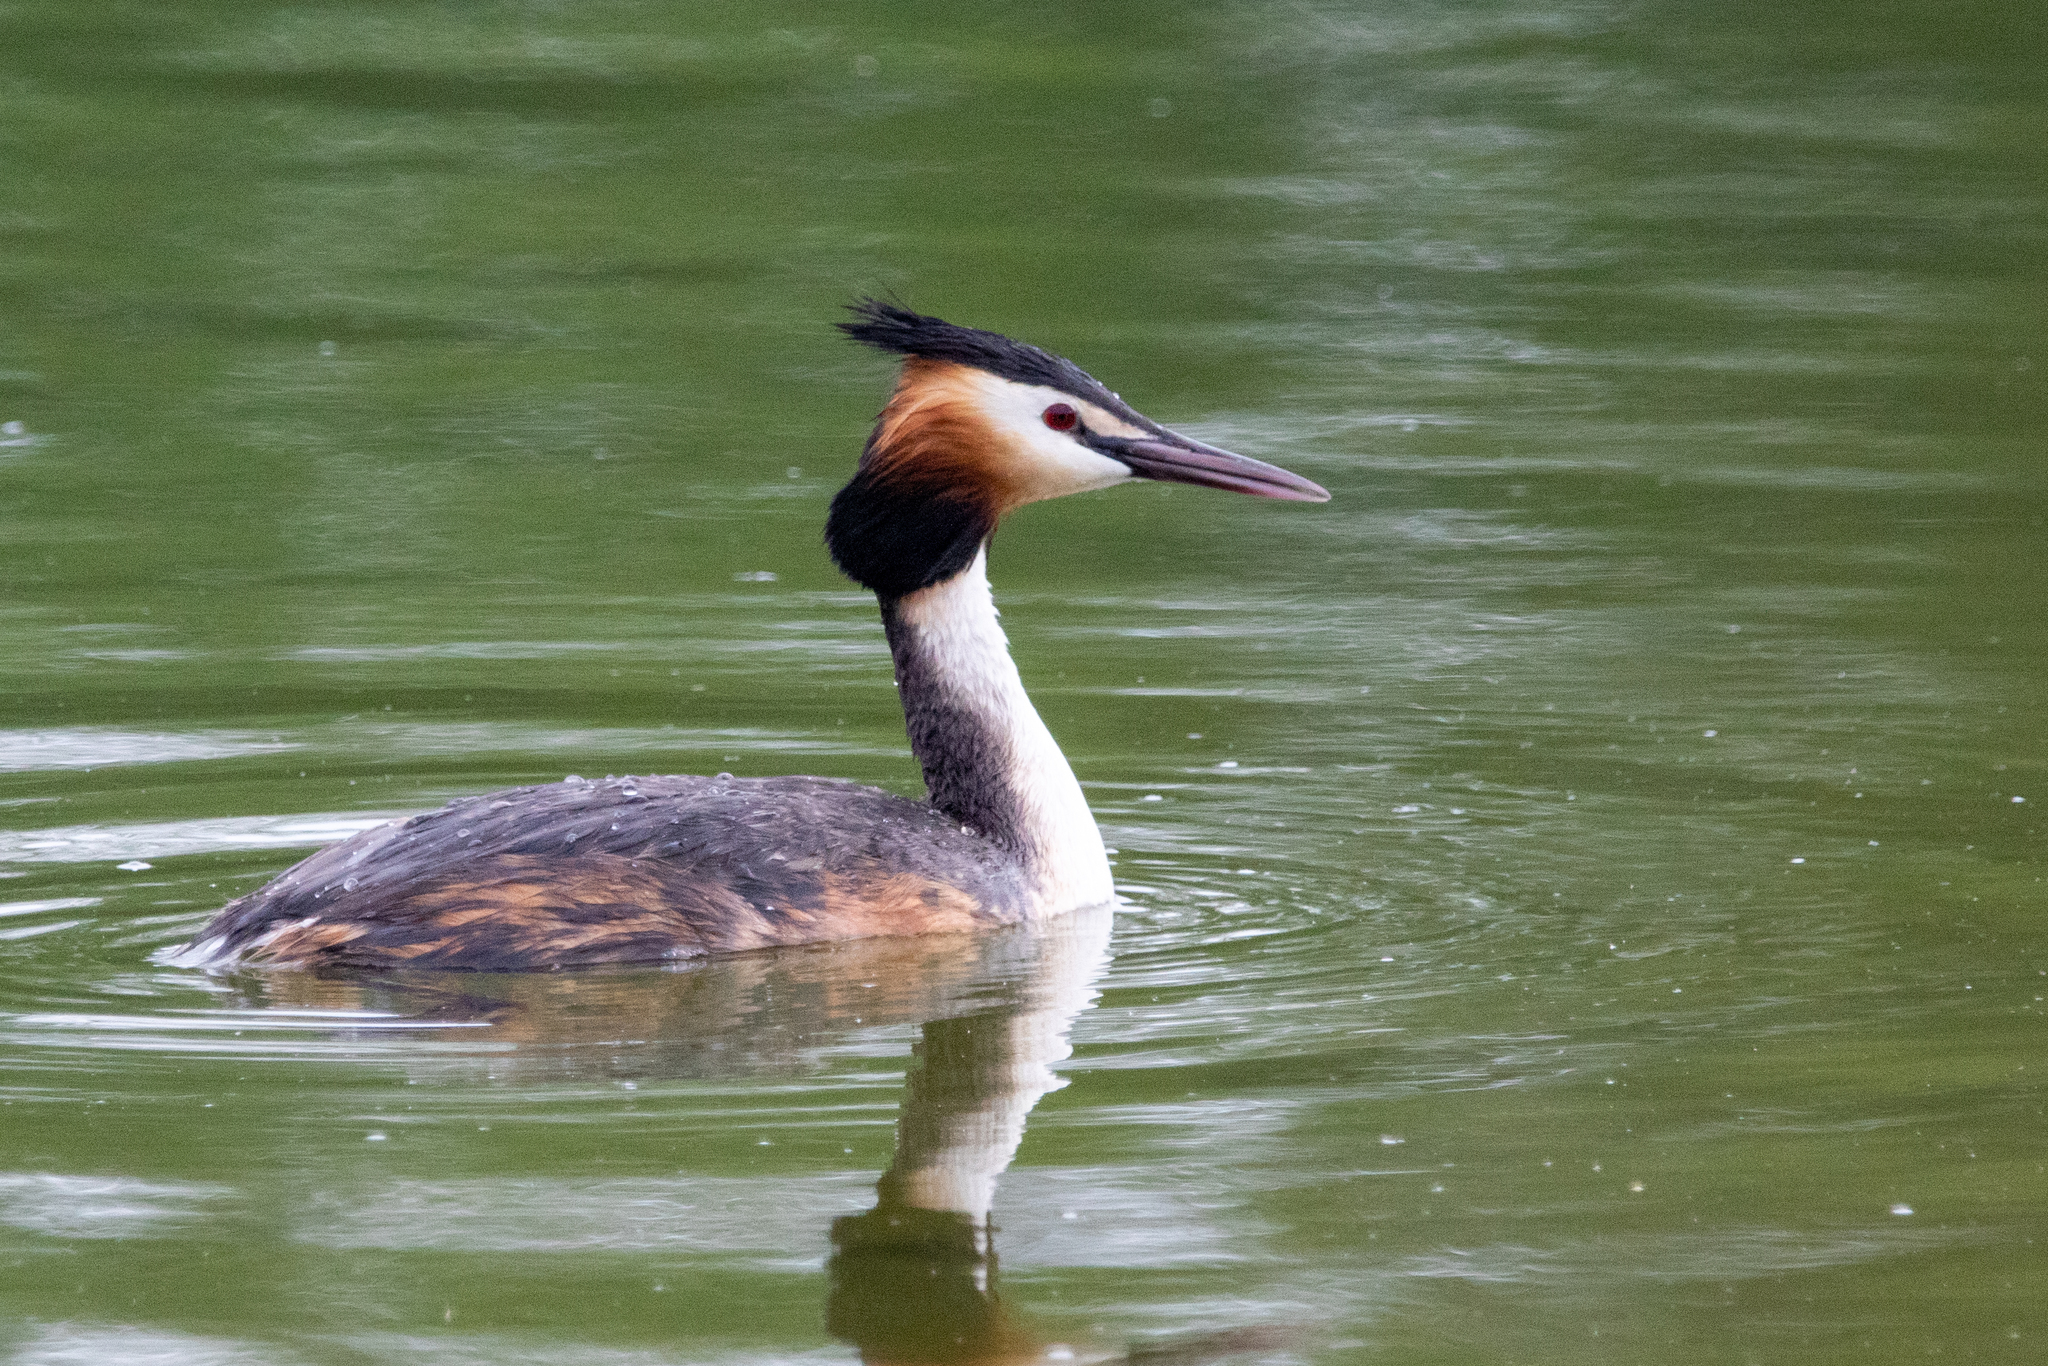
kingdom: Animalia
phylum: Chordata
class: Aves
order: Podicipediformes
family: Podicipedidae
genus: Podiceps
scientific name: Podiceps cristatus
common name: Great crested grebe
